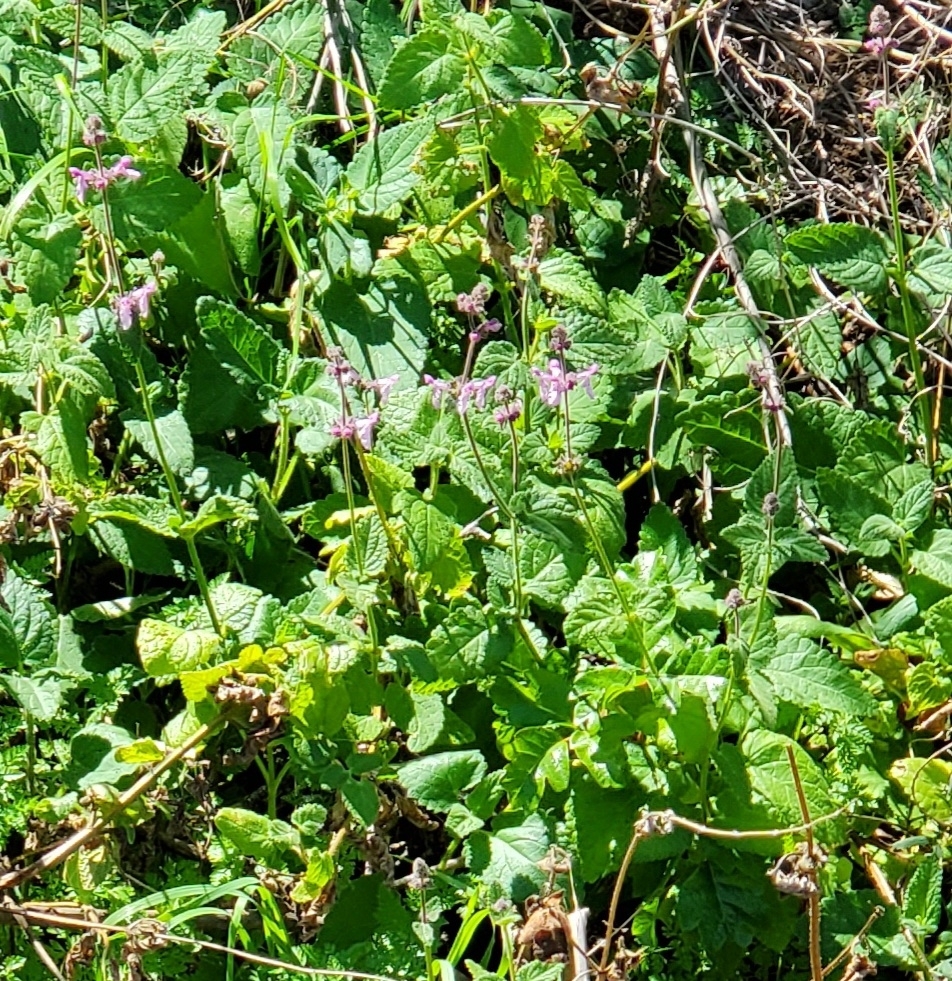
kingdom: Plantae
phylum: Tracheophyta
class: Magnoliopsida
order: Lamiales
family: Lamiaceae
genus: Stachys
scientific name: Stachys bullata
